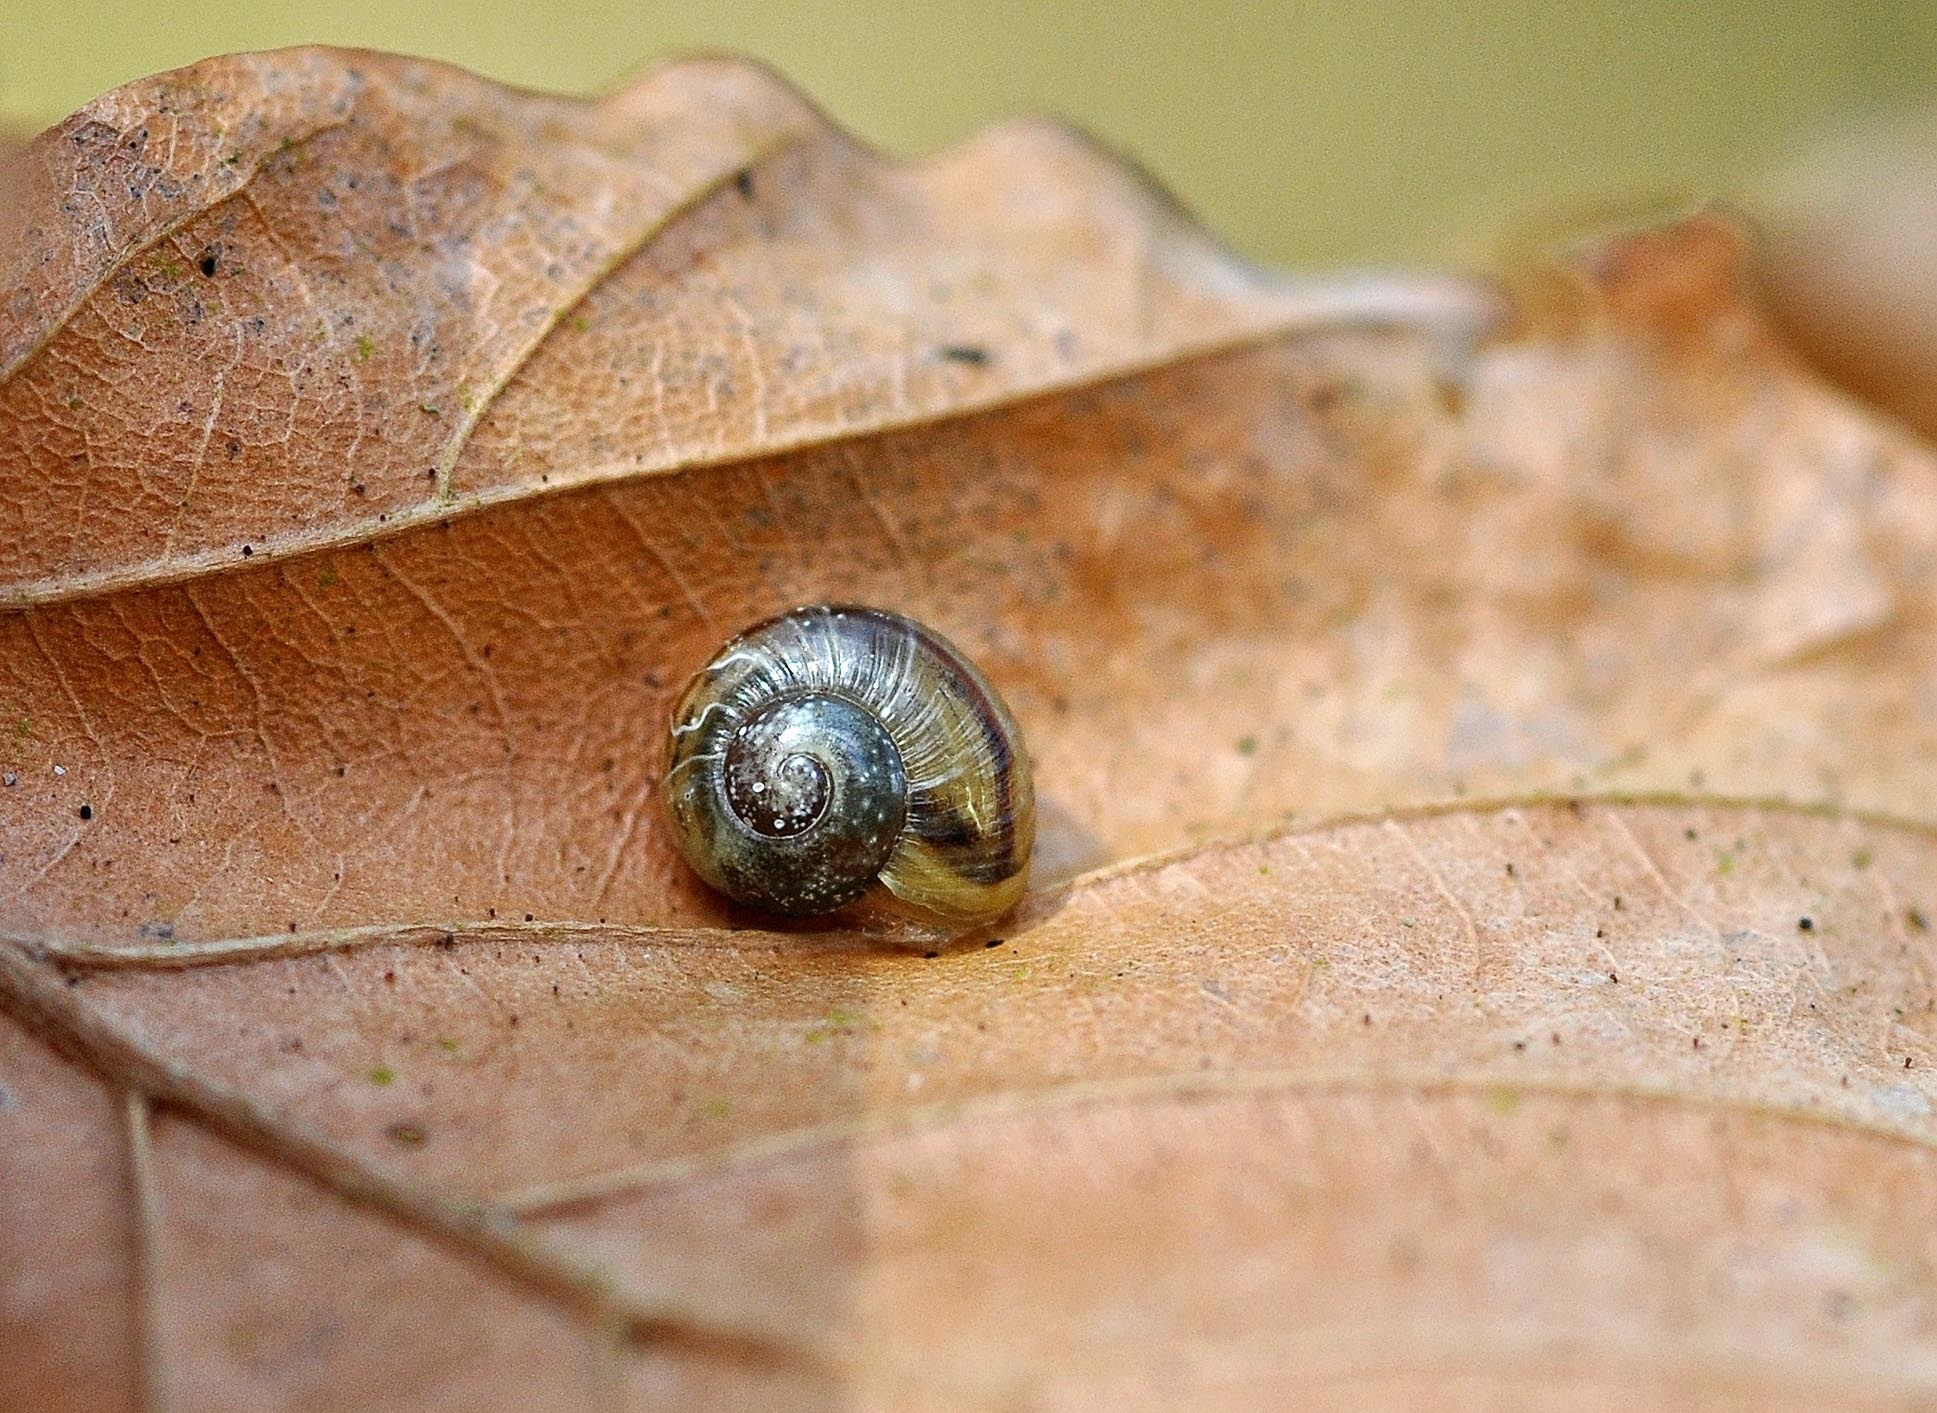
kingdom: Animalia
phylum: Mollusca
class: Gastropoda
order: Stylommatophora
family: Helicidae
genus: Arianta
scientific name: Arianta arbustorum
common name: Copse snail
